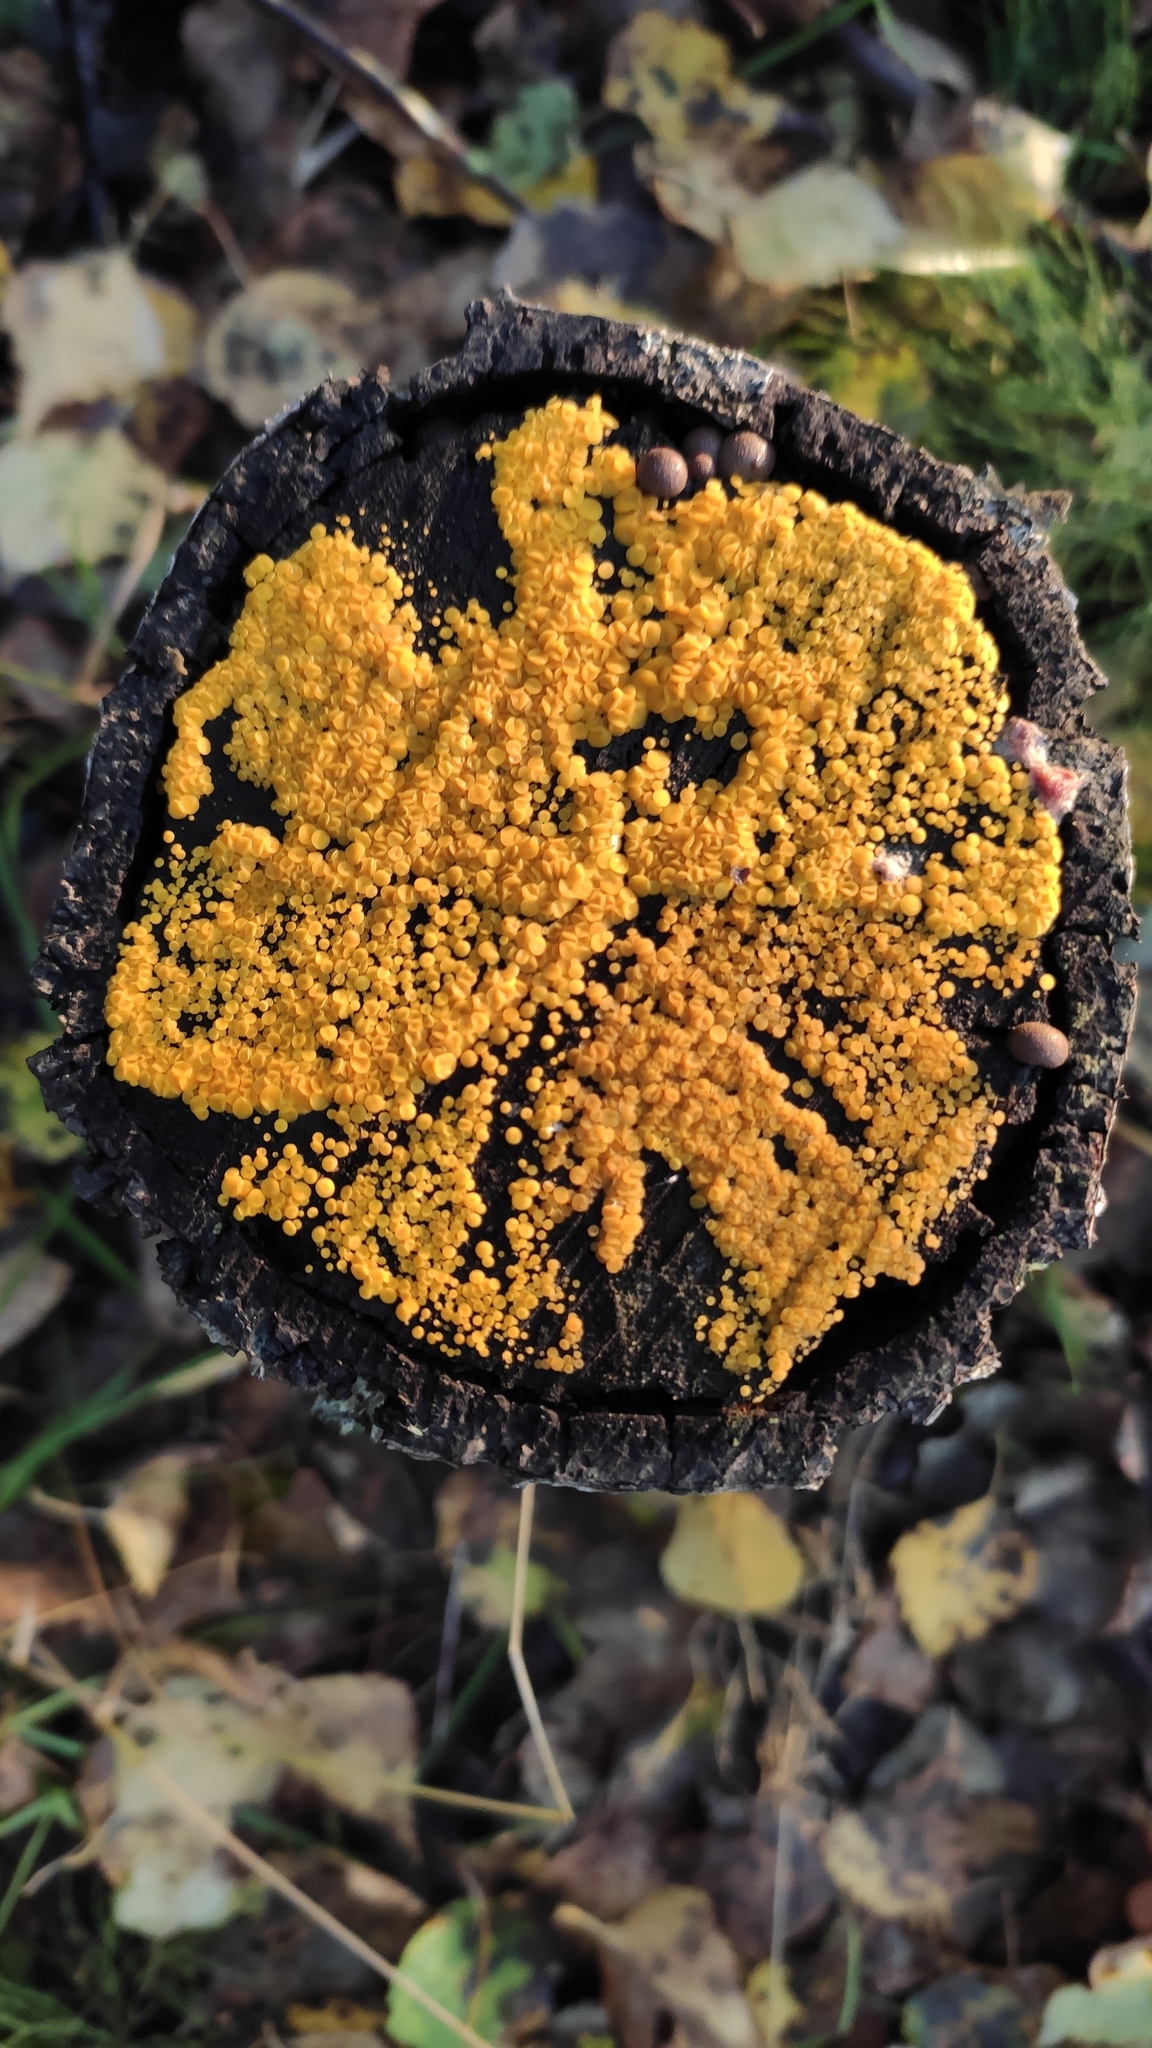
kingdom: Fungi
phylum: Ascomycota
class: Leotiomycetes
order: Helotiales
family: Pezizellaceae
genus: Calycina
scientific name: Calycina citrina
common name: Yellow fairy cups
